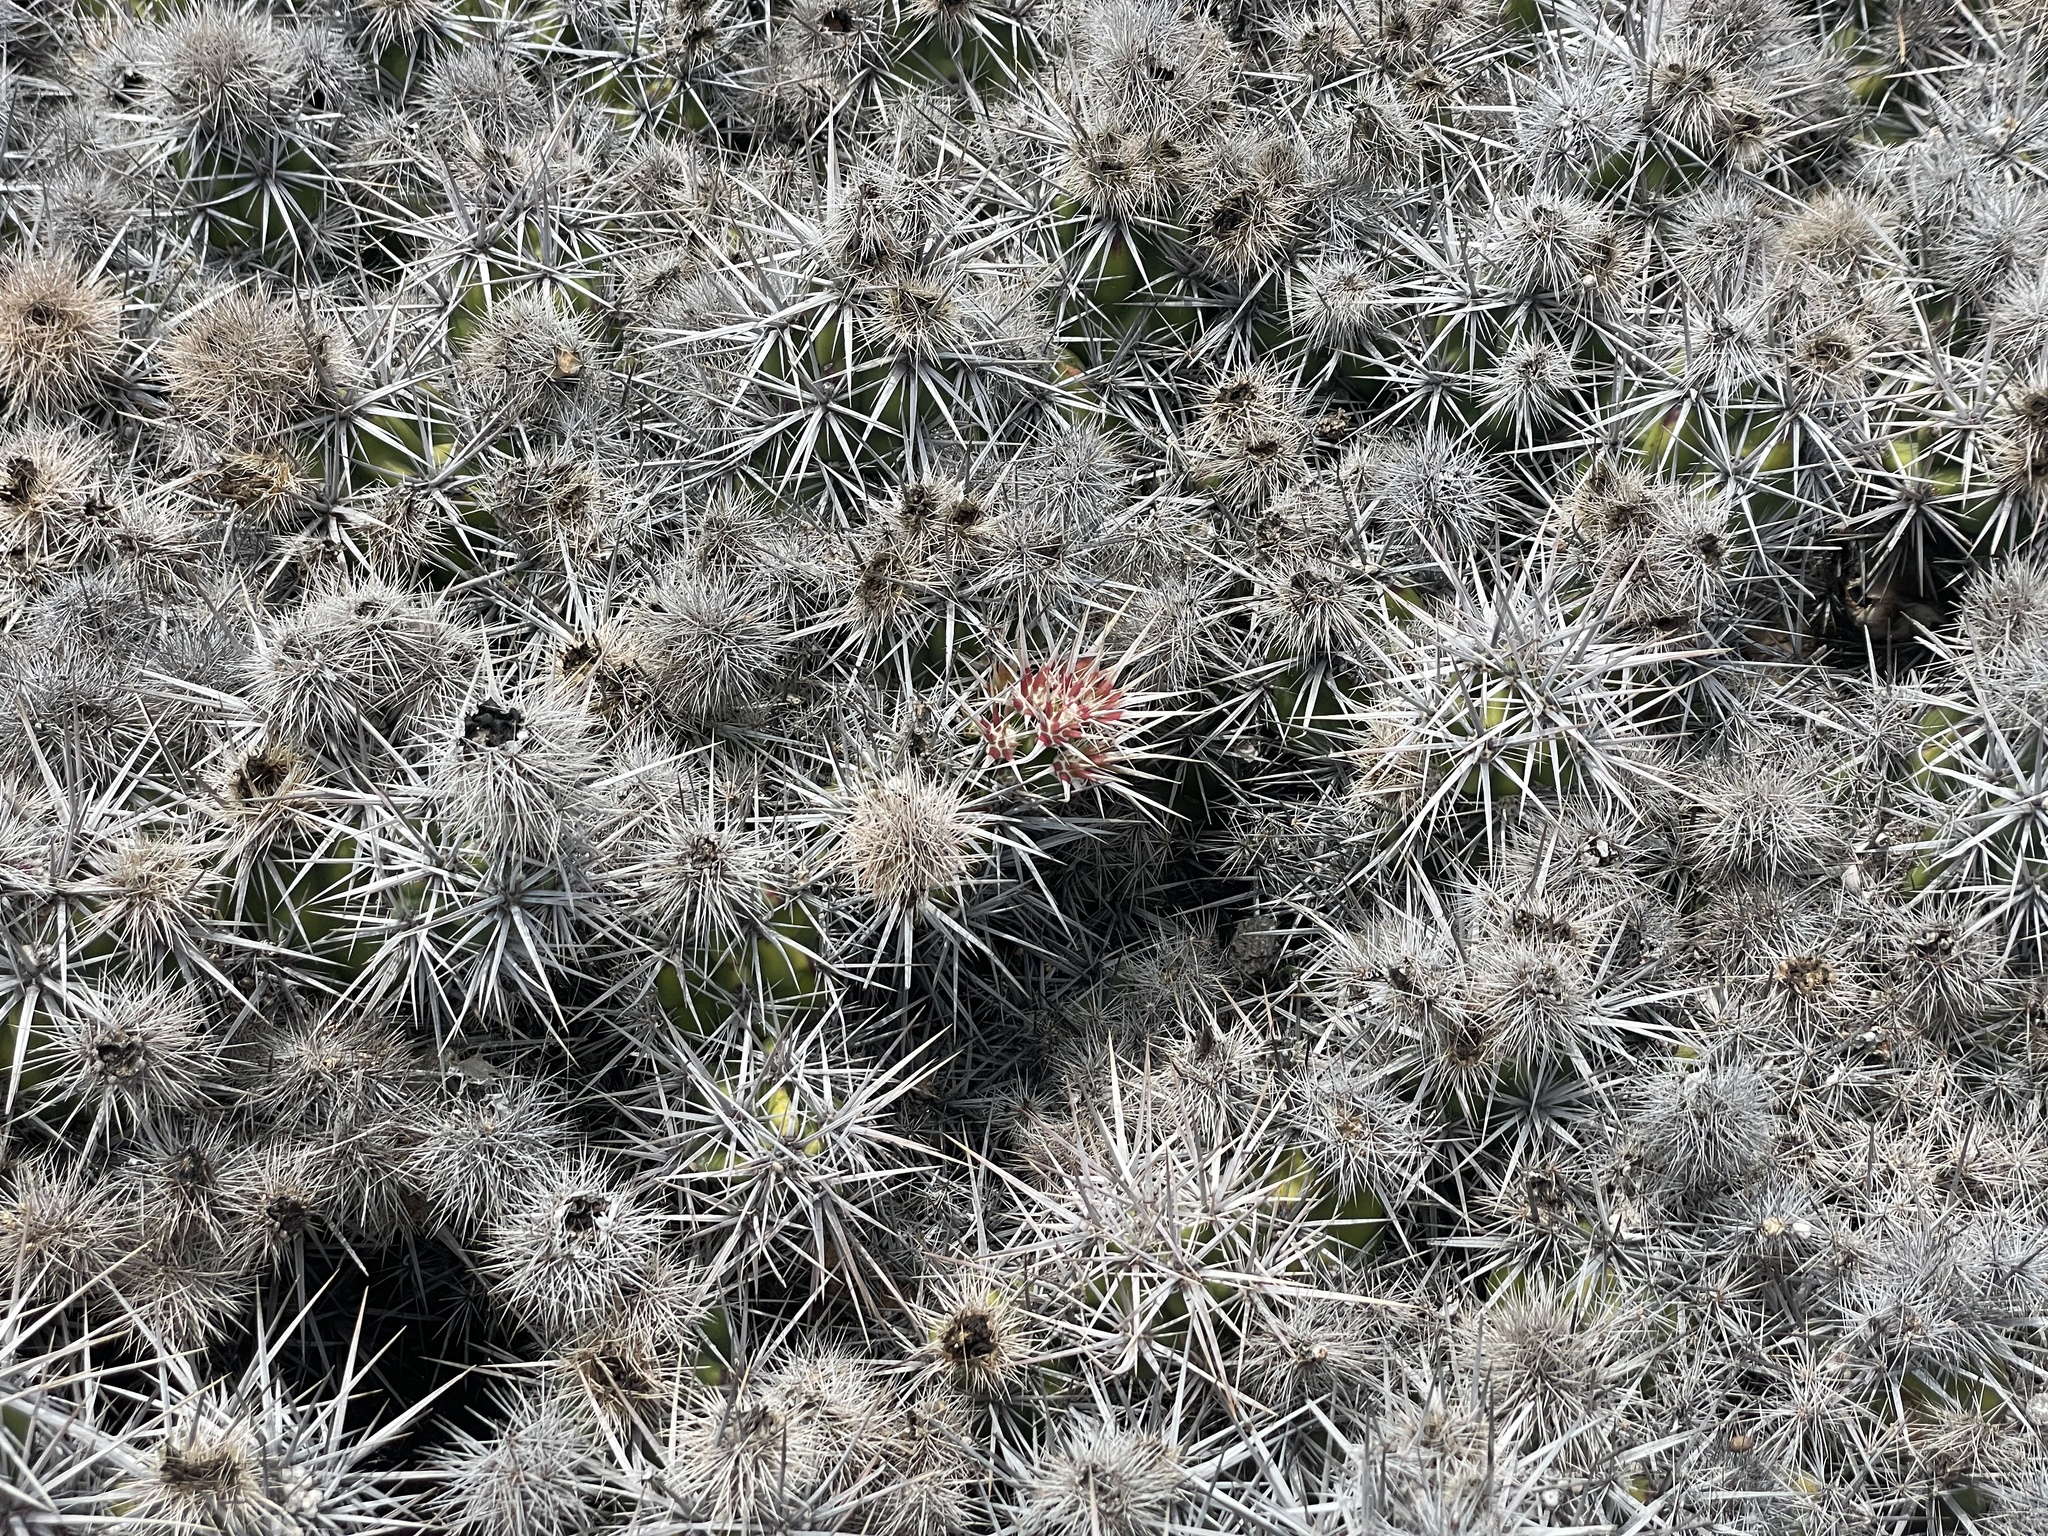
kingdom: Plantae
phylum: Tracheophyta
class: Magnoliopsida
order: Caryophyllales
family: Cactaceae
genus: Grusonia
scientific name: Grusonia invicta
